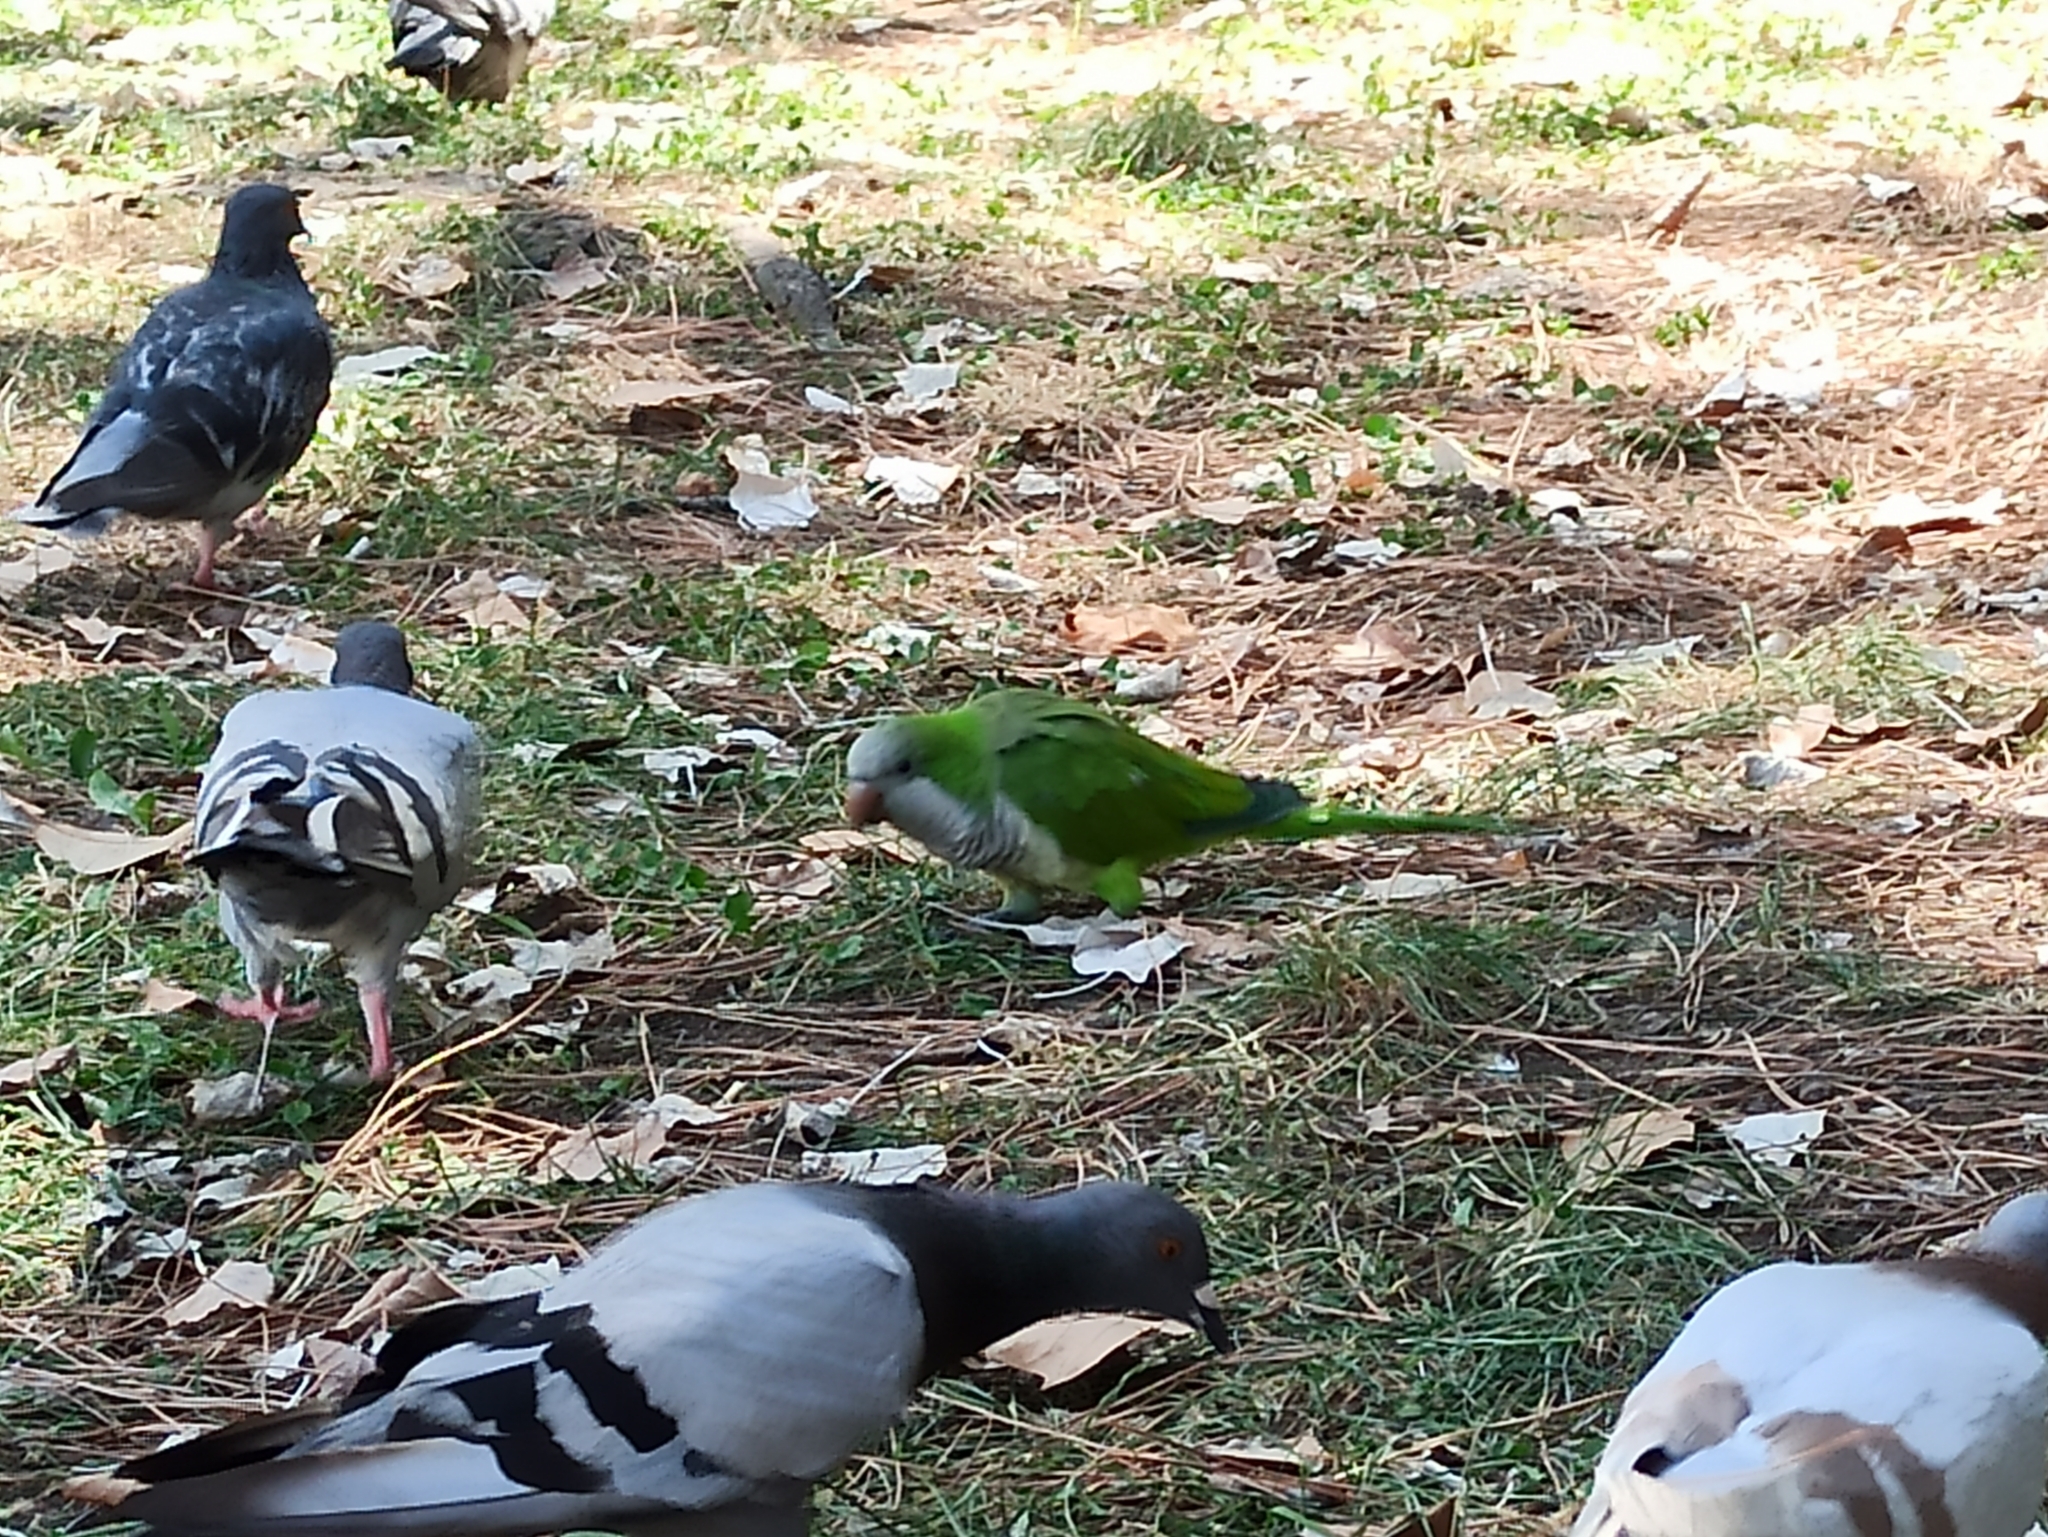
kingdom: Animalia
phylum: Chordata
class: Aves
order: Psittaciformes
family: Psittacidae
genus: Myiopsitta
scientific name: Myiopsitta monachus
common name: Monk parakeet
